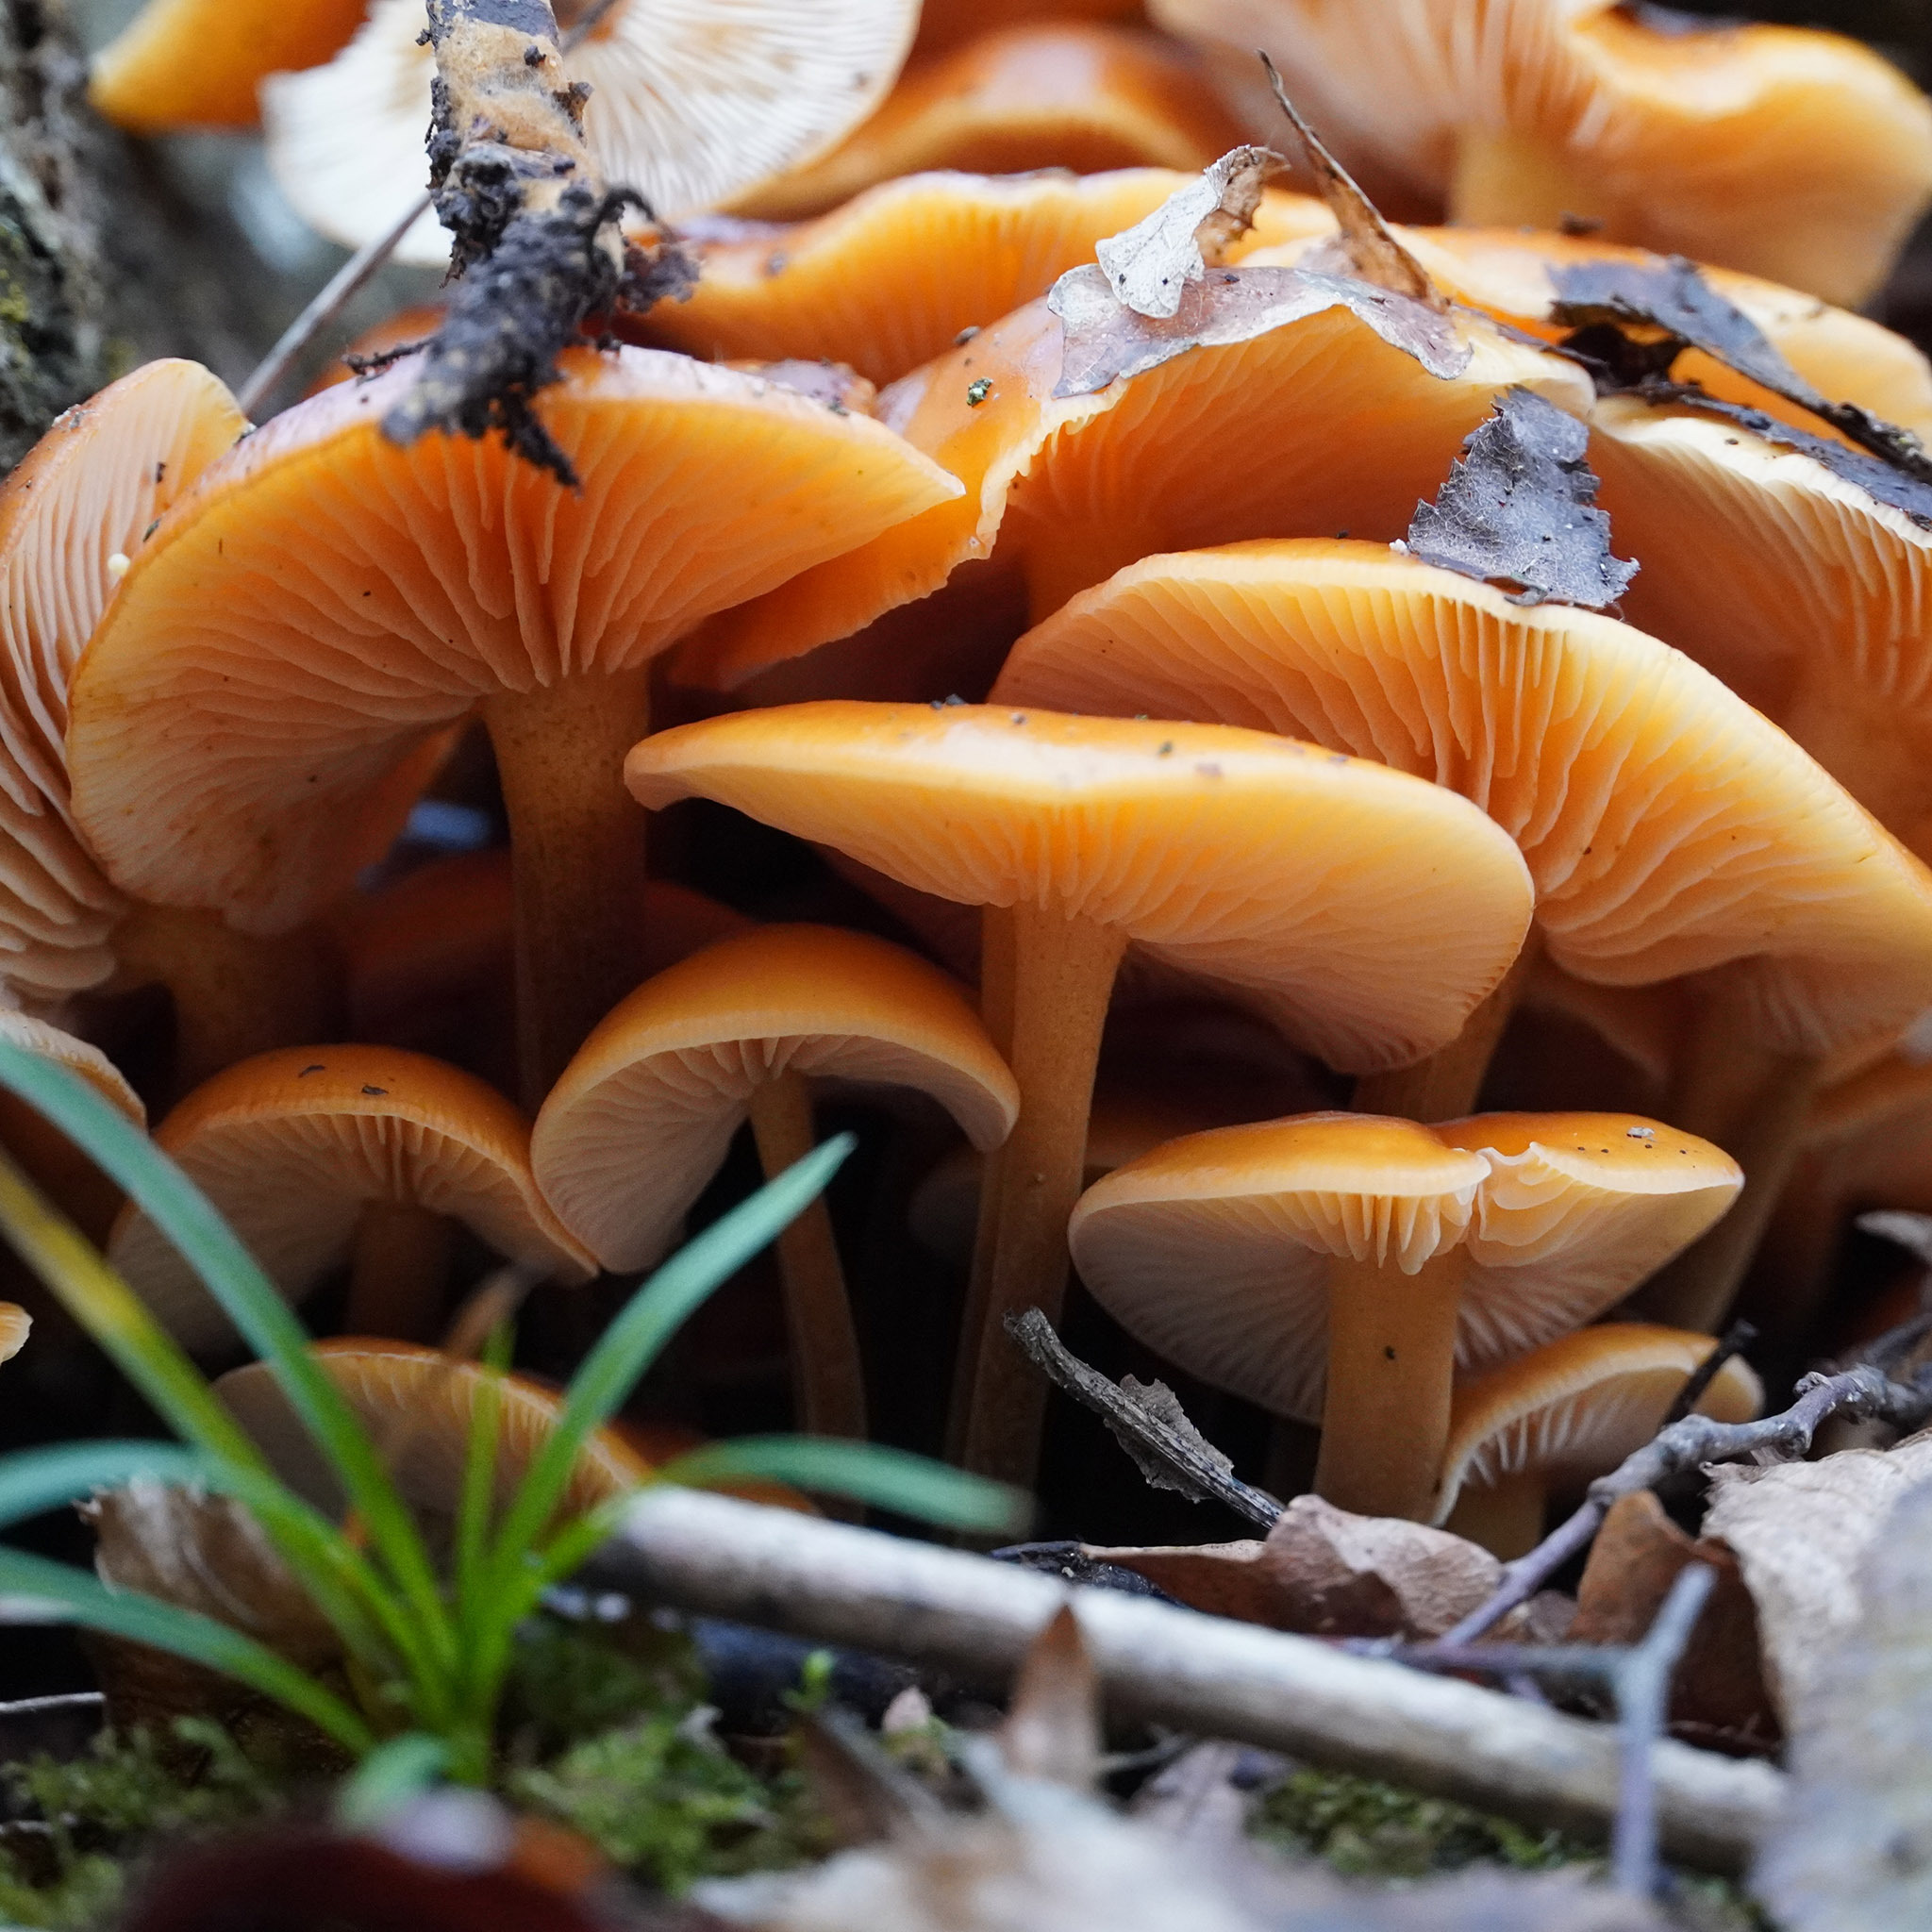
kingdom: Fungi
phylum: Basidiomycota
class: Agaricomycetes
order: Agaricales
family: Physalacriaceae
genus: Flammulina
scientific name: Flammulina
